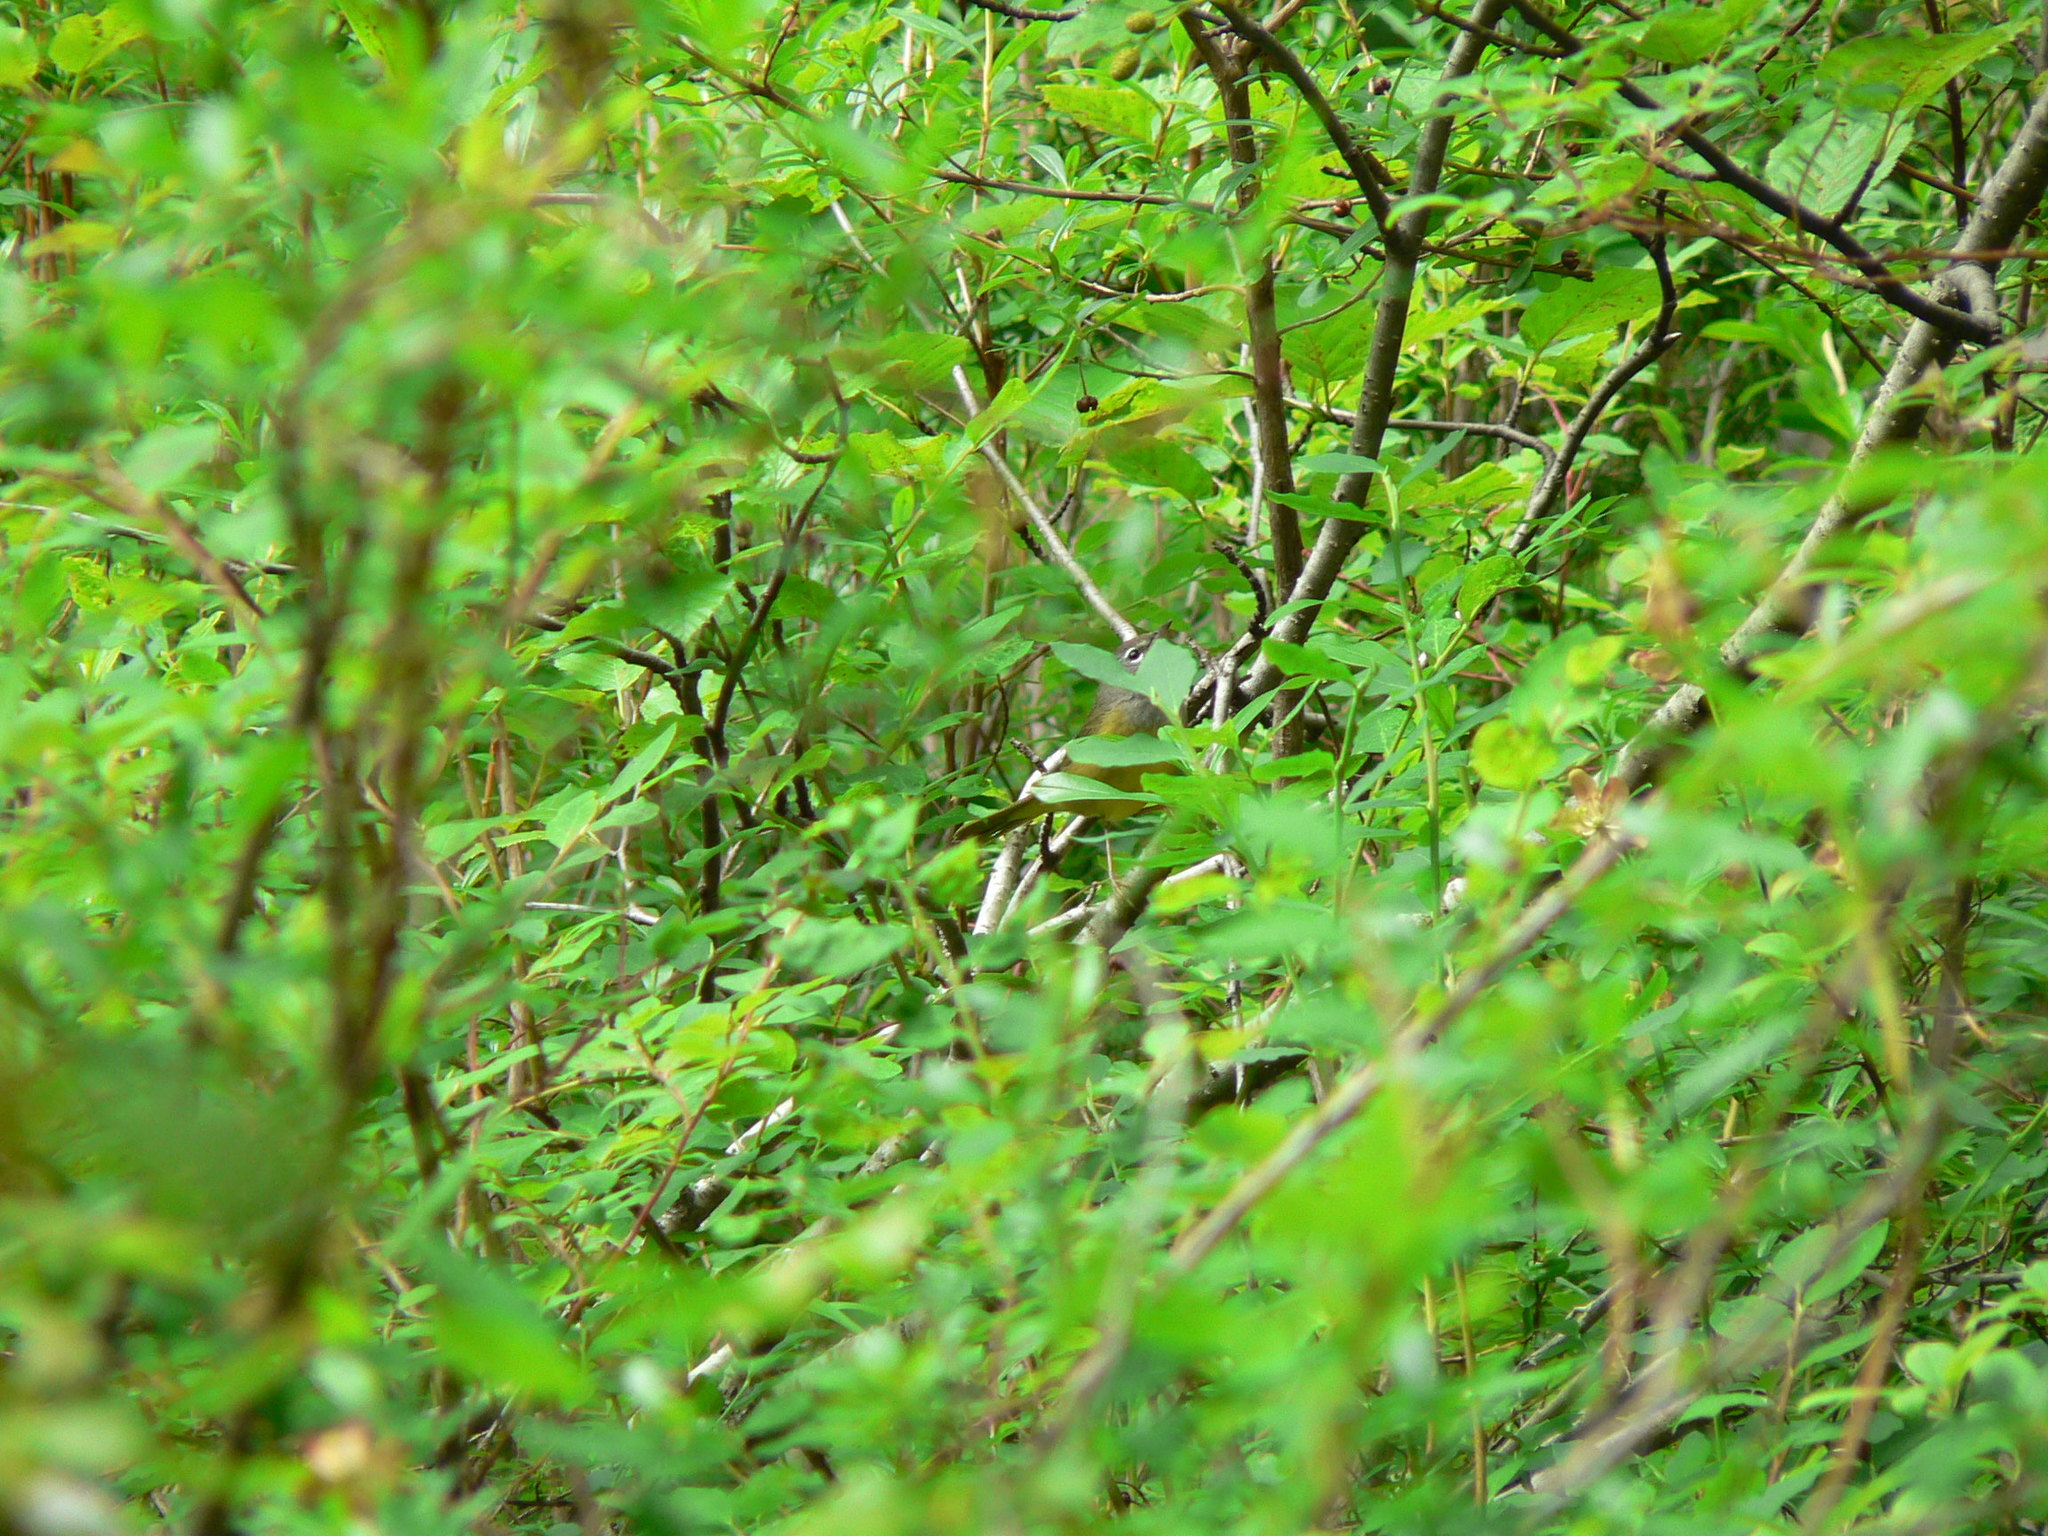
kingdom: Animalia
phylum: Chordata
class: Aves
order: Passeriformes
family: Parulidae
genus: Geothlypis
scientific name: Geothlypis tolmiei
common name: Macgillivray's warbler
